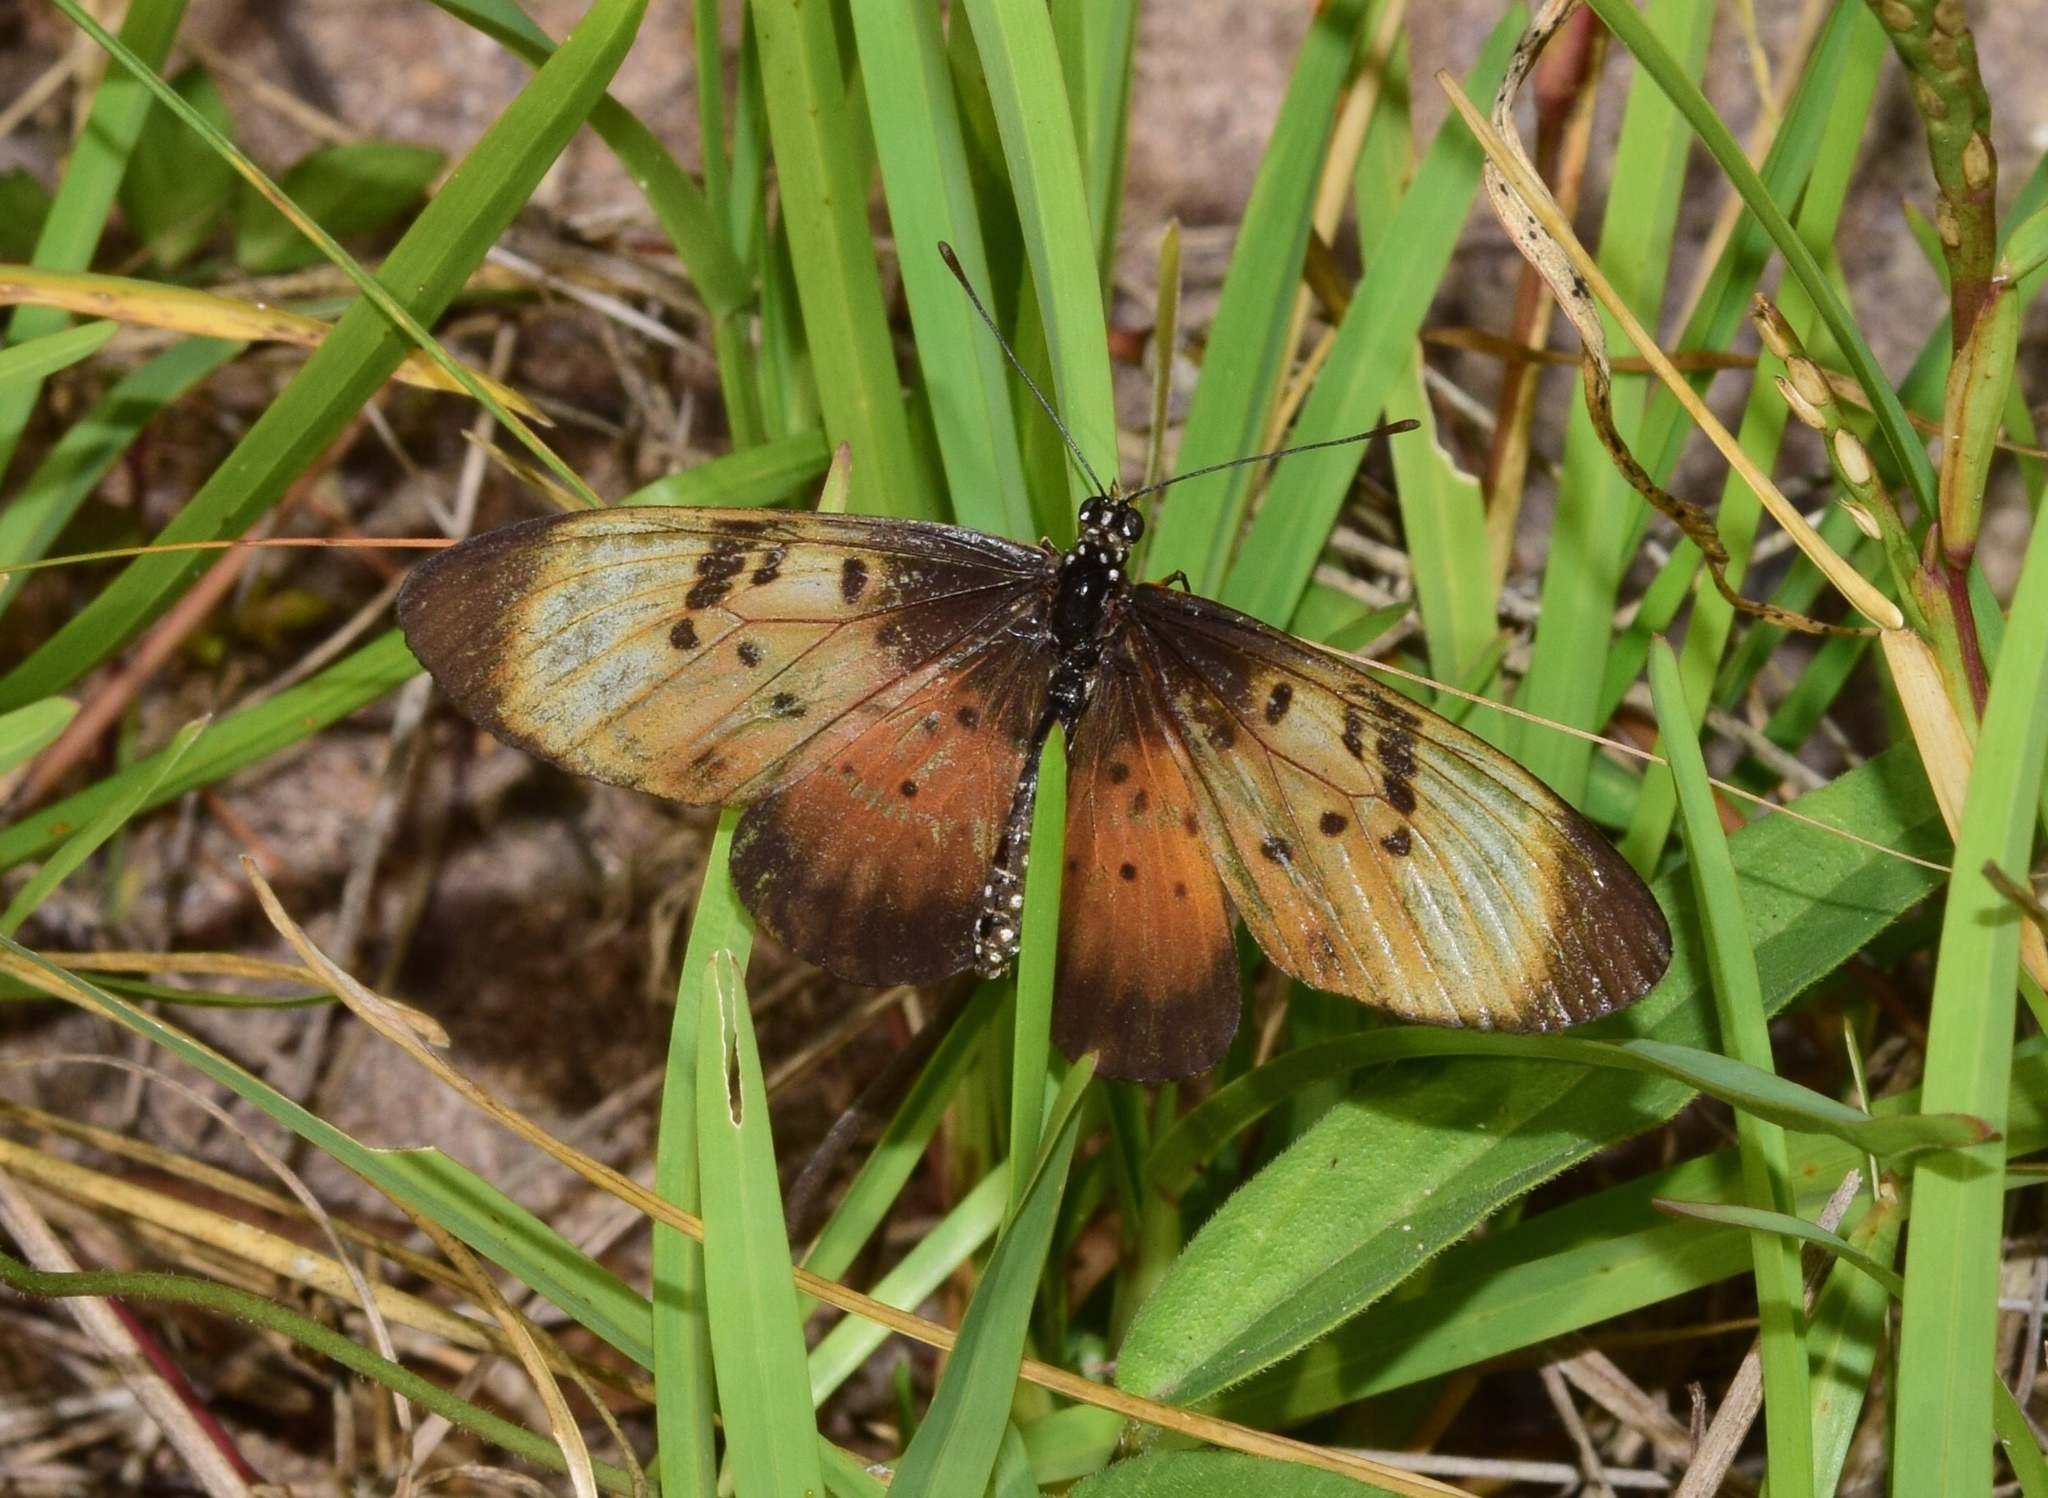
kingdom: Animalia
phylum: Arthropoda
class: Insecta
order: Lepidoptera
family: Nymphalidae
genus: Stephenia
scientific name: Stephenia
